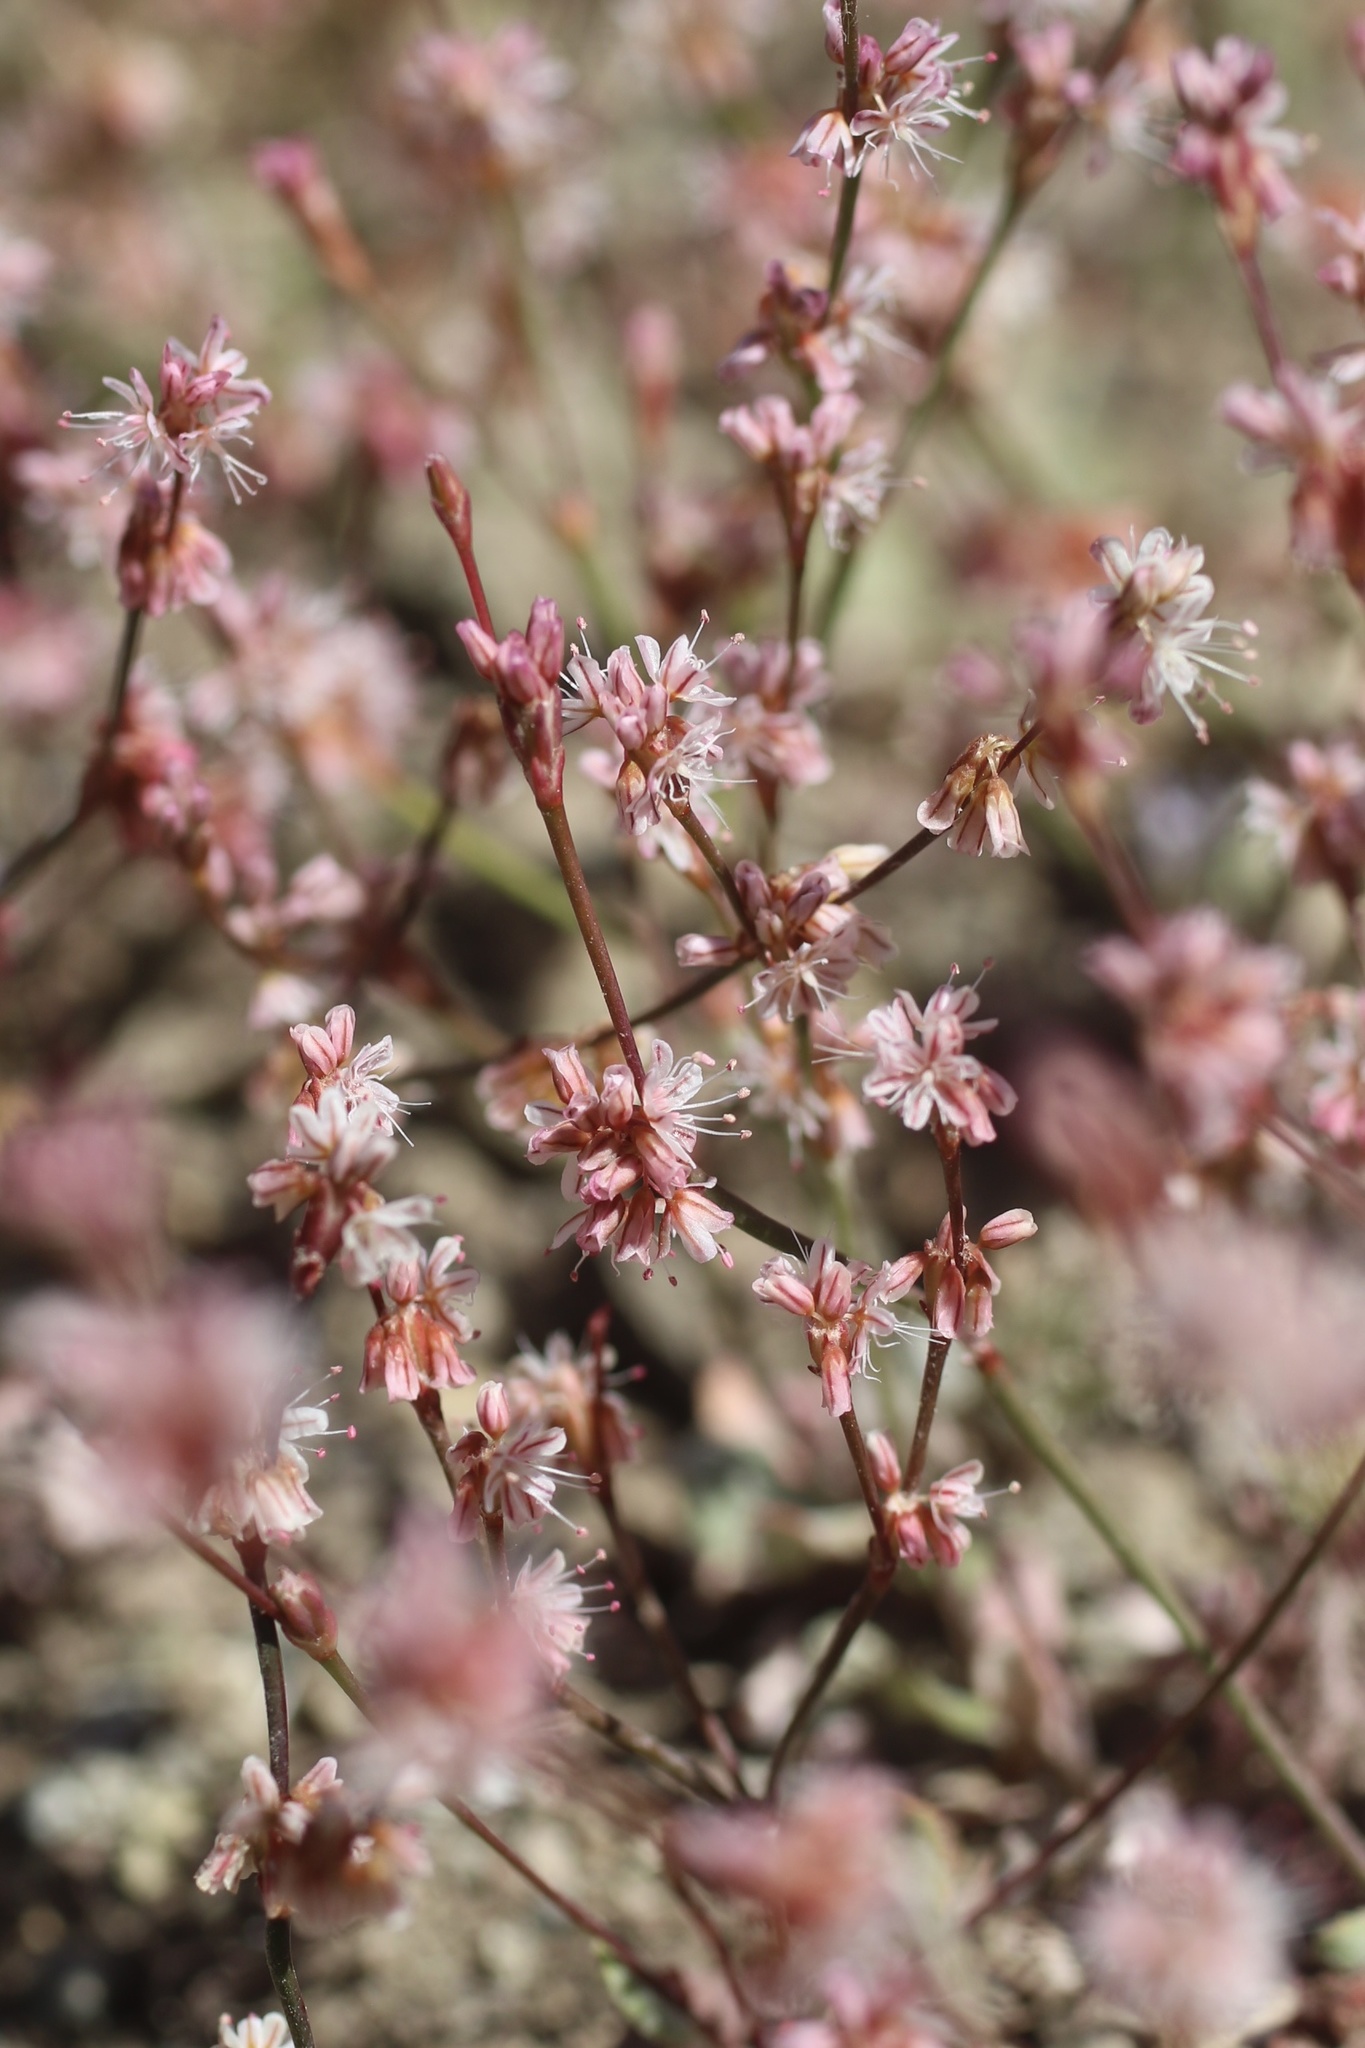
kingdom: Plantae
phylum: Tracheophyta
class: Magnoliopsida
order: Caryophyllales
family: Polygonaceae
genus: Eriogonum
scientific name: Eriogonum luteolum
